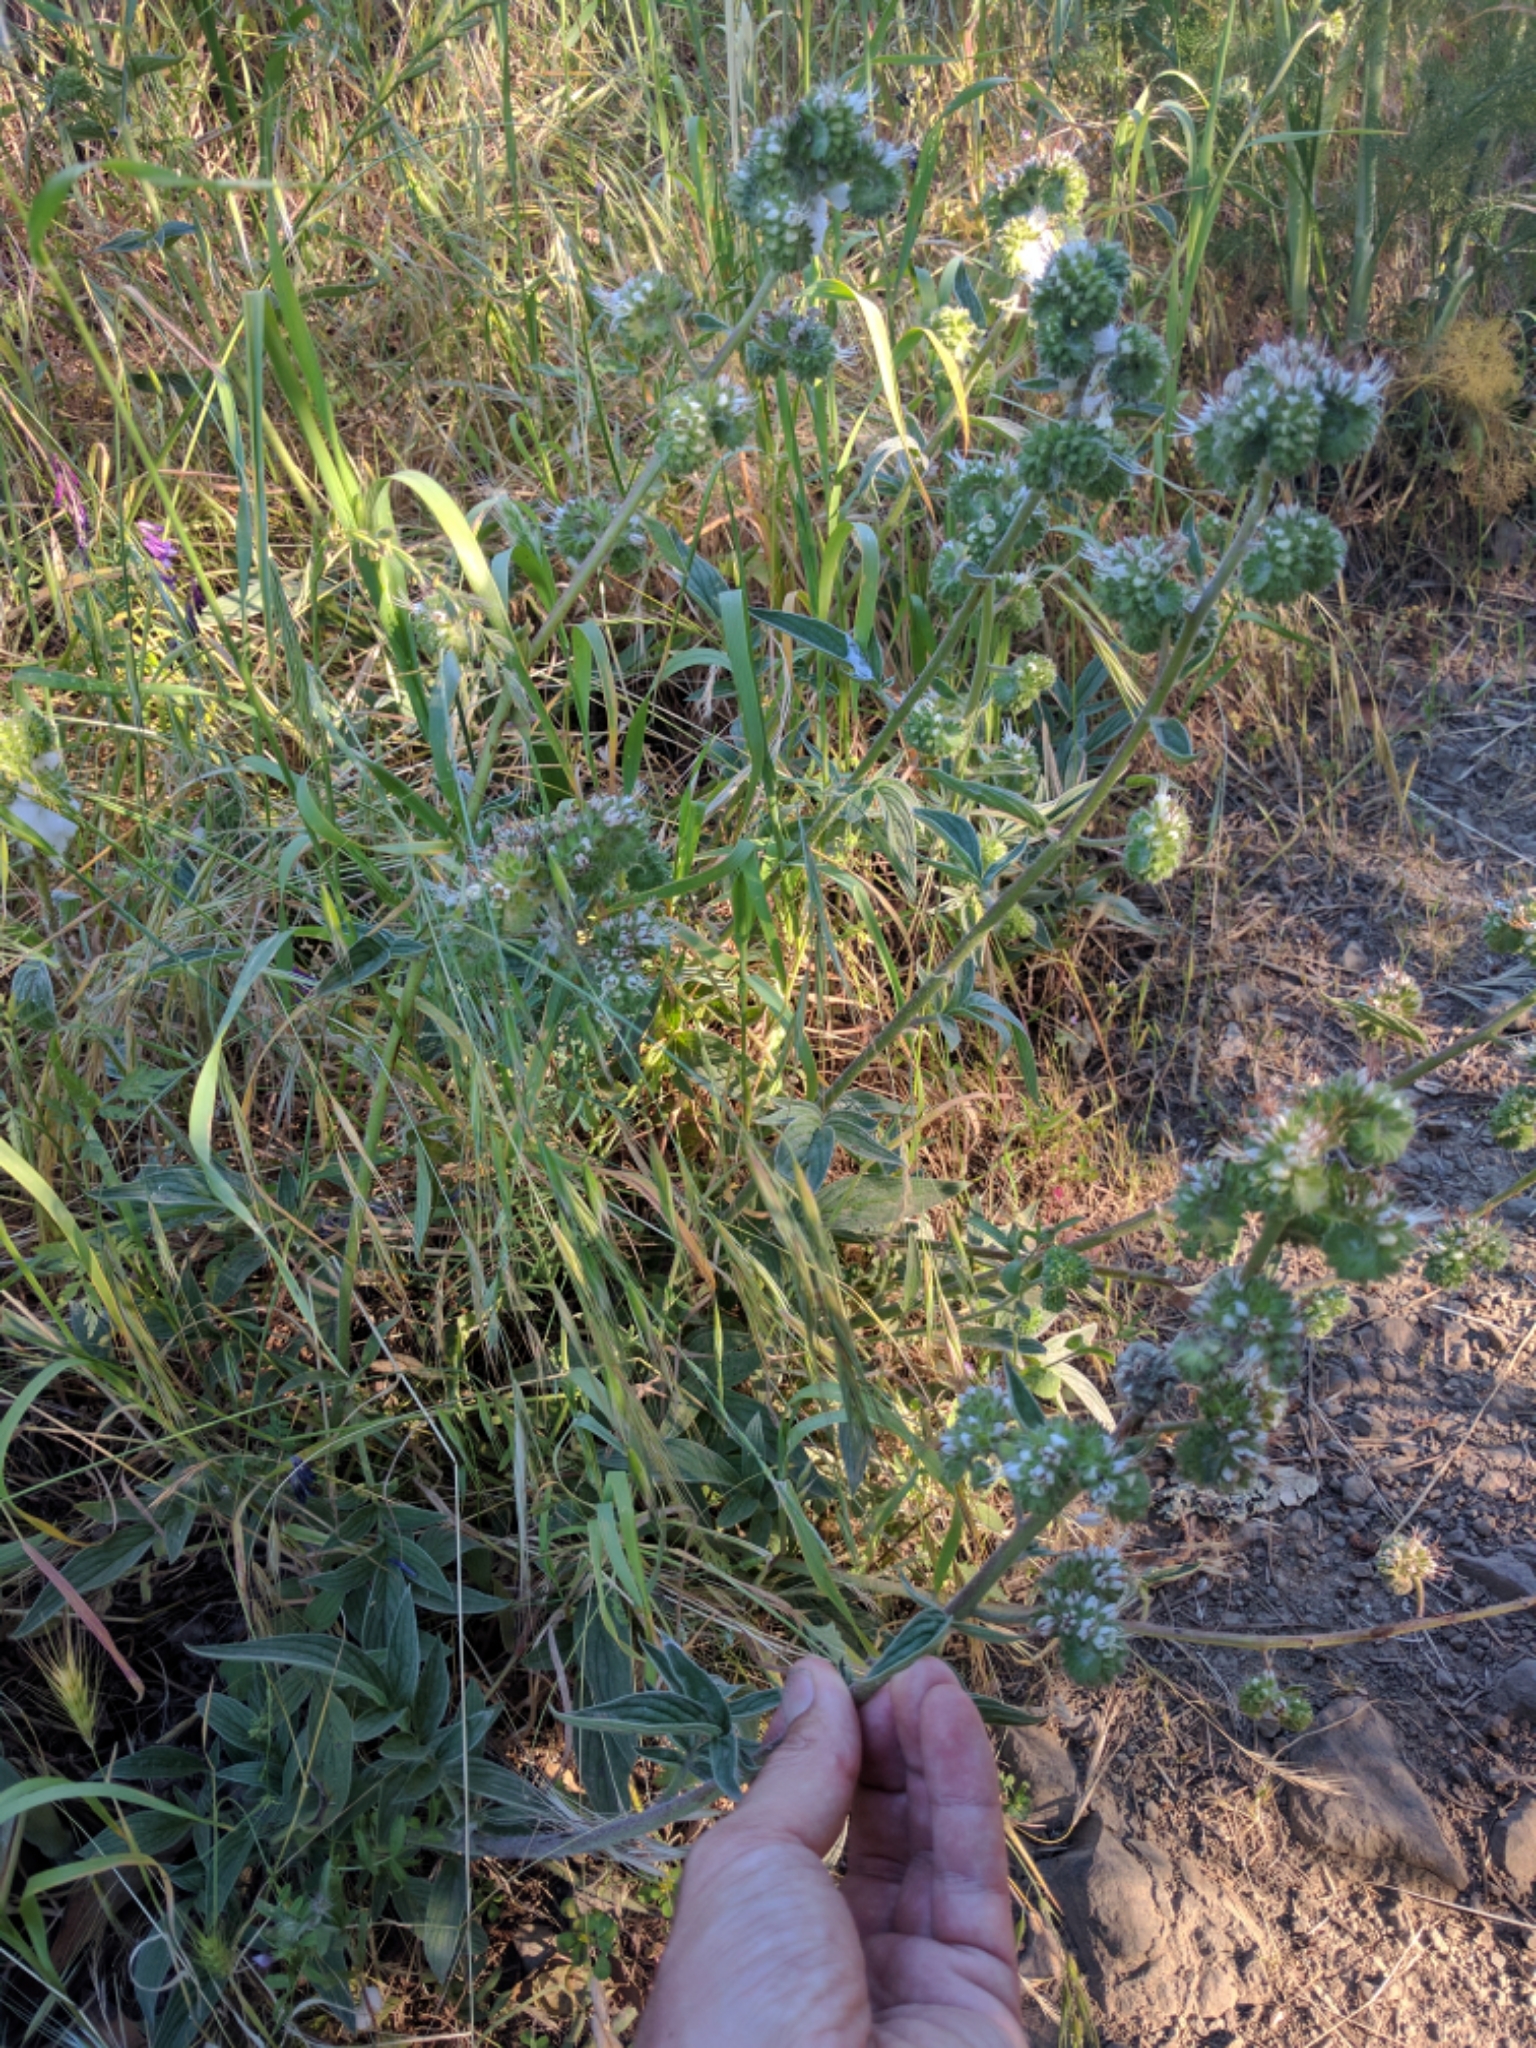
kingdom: Plantae
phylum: Tracheophyta
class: Magnoliopsida
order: Boraginales
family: Hydrophyllaceae
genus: Phacelia
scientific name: Phacelia imbricata
